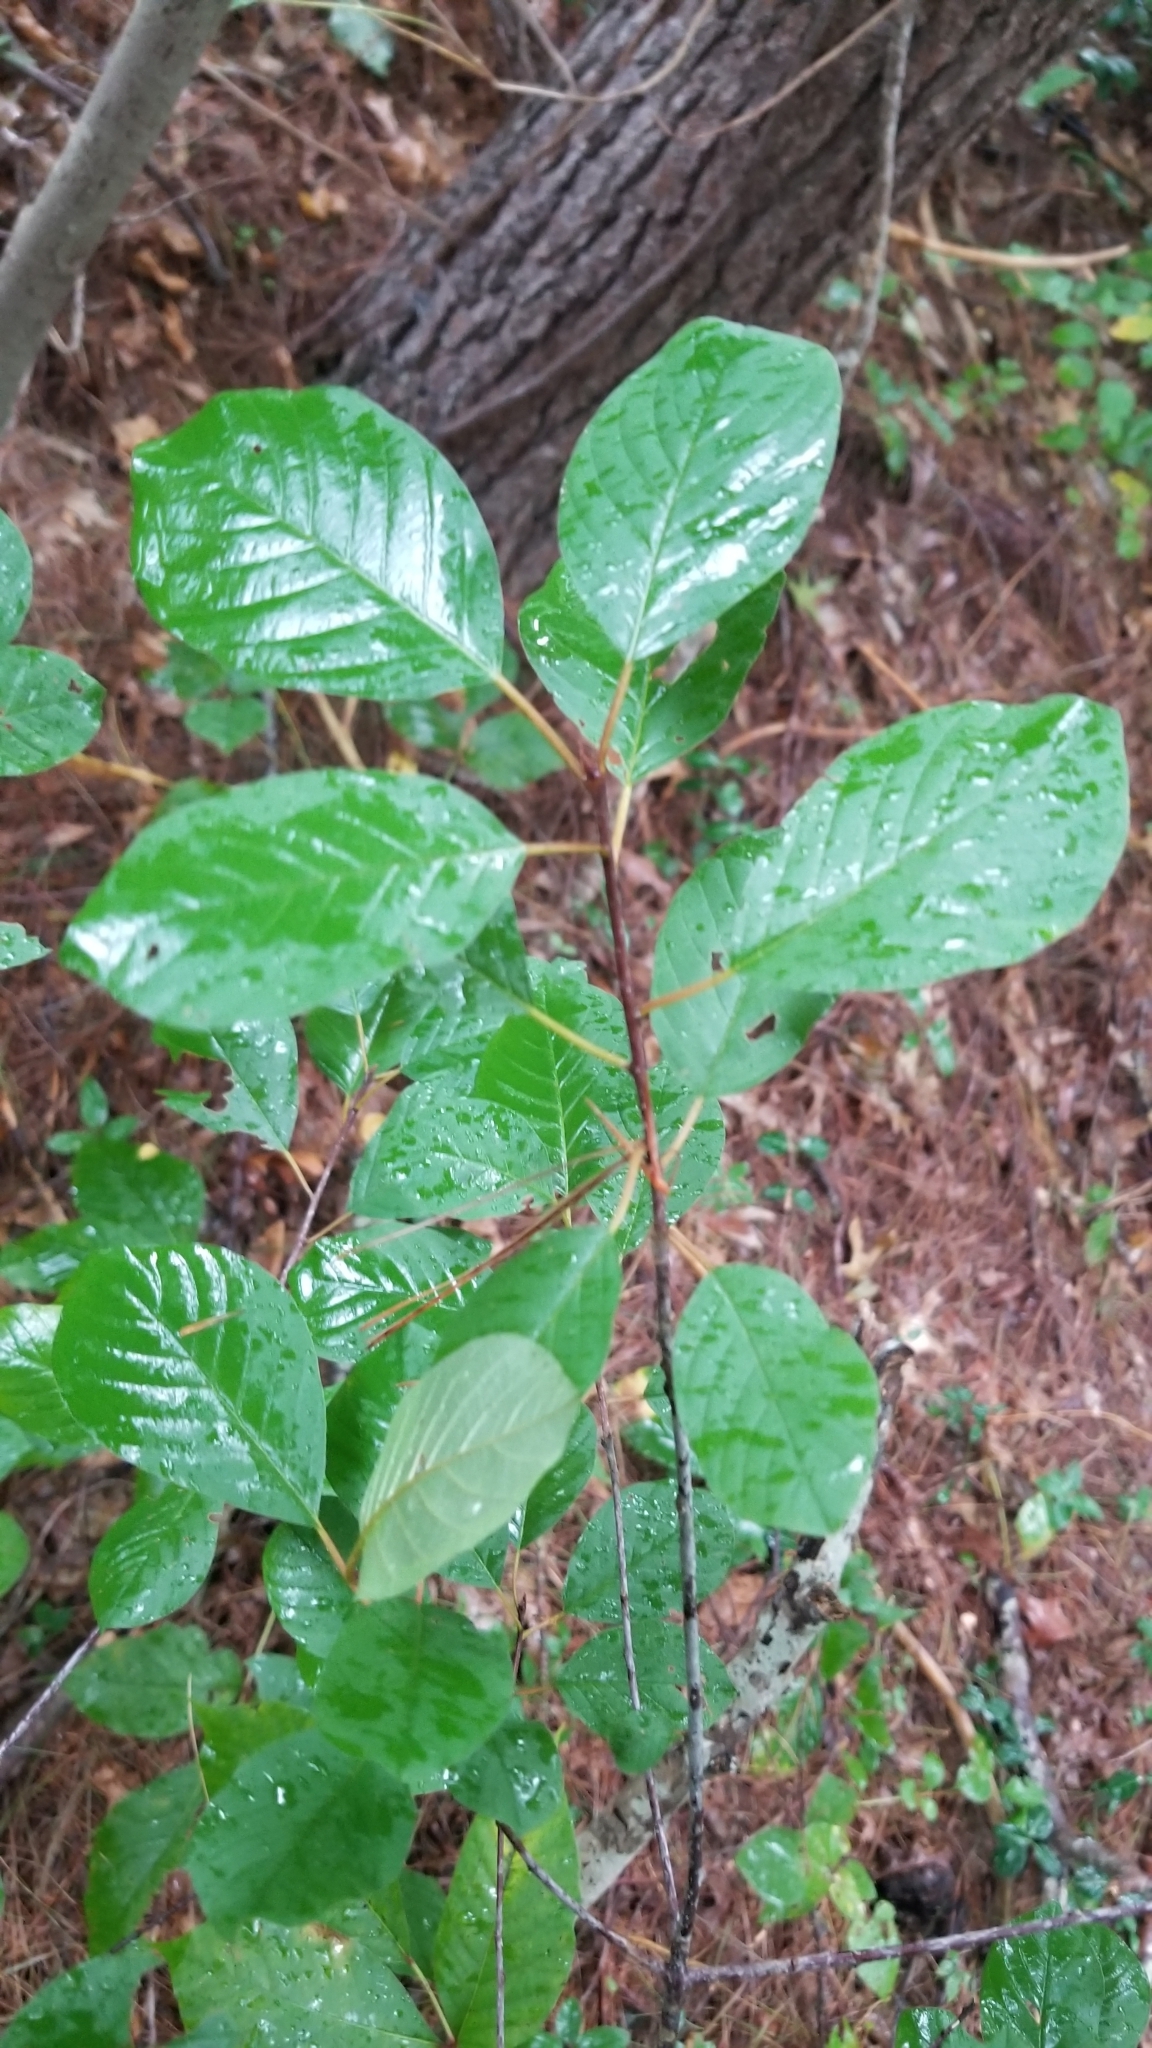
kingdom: Plantae
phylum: Tracheophyta
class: Magnoliopsida
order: Rosales
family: Rhamnaceae
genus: Frangula
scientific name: Frangula alnus
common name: Alder buckthorn
